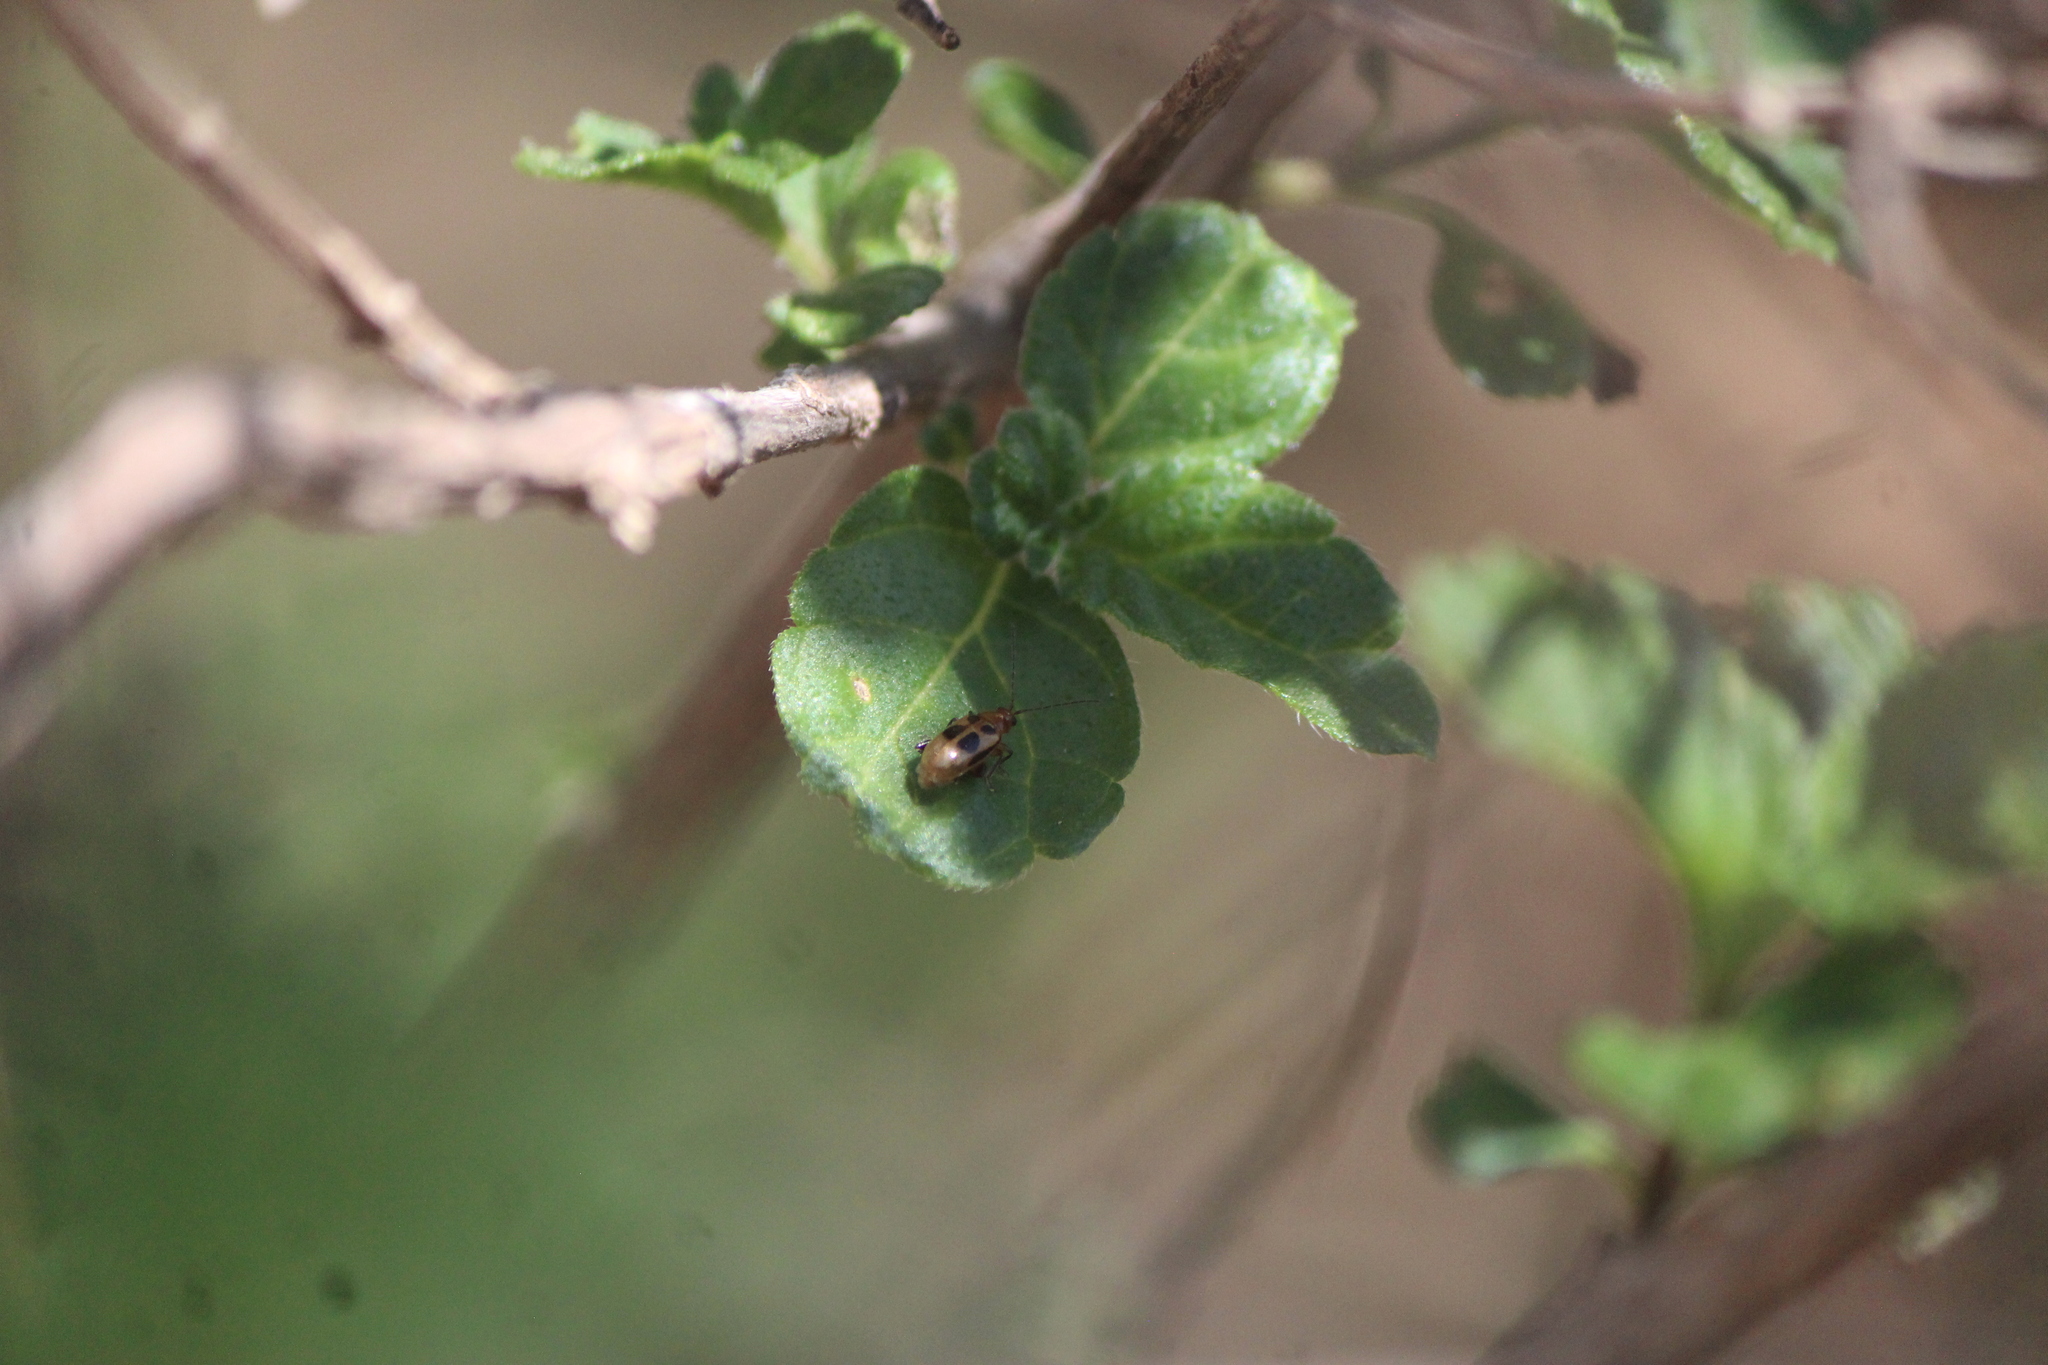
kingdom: Animalia
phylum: Arthropoda
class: Insecta
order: Coleoptera
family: Chrysomelidae
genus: Systena
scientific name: Systena
